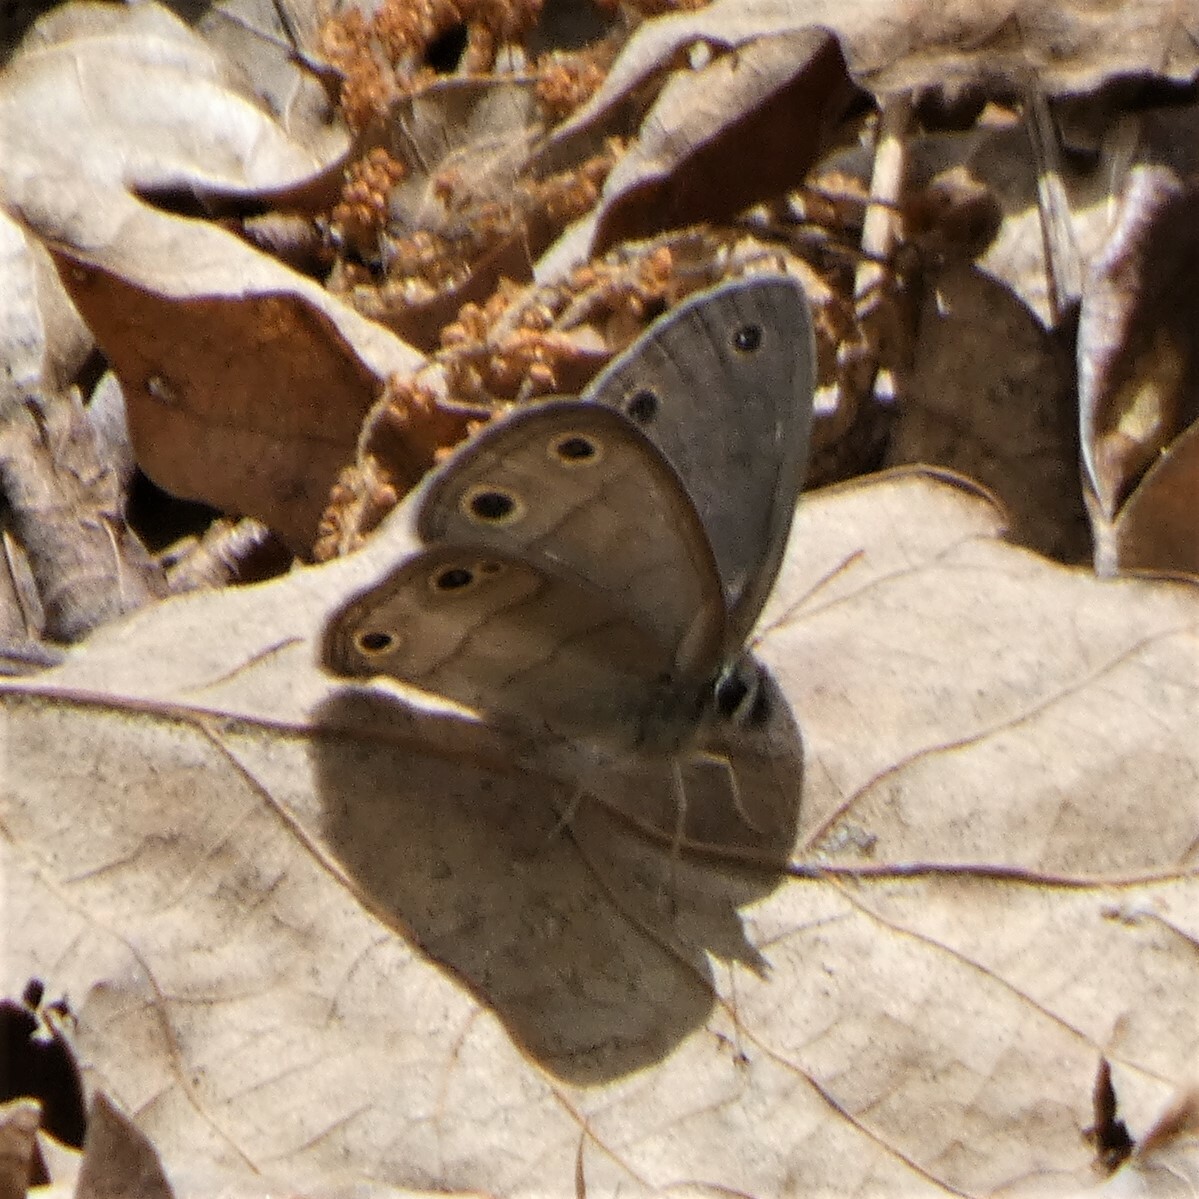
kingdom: Animalia
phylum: Arthropoda
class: Insecta
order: Lepidoptera
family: Nymphalidae
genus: Euptychia
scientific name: Euptychia cymela
